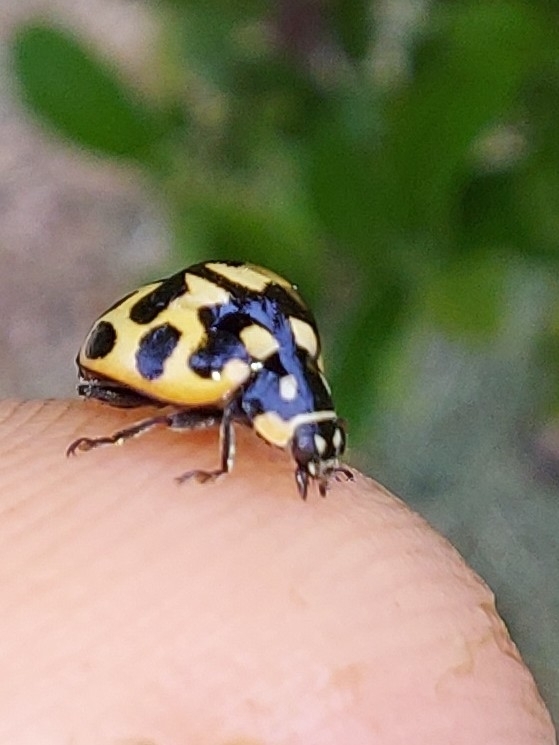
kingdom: Animalia
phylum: Arthropoda
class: Insecta
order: Coleoptera
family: Coccinellidae
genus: Lioadalia
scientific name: Lioadalia flavomaculata
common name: Ladybird beetle
